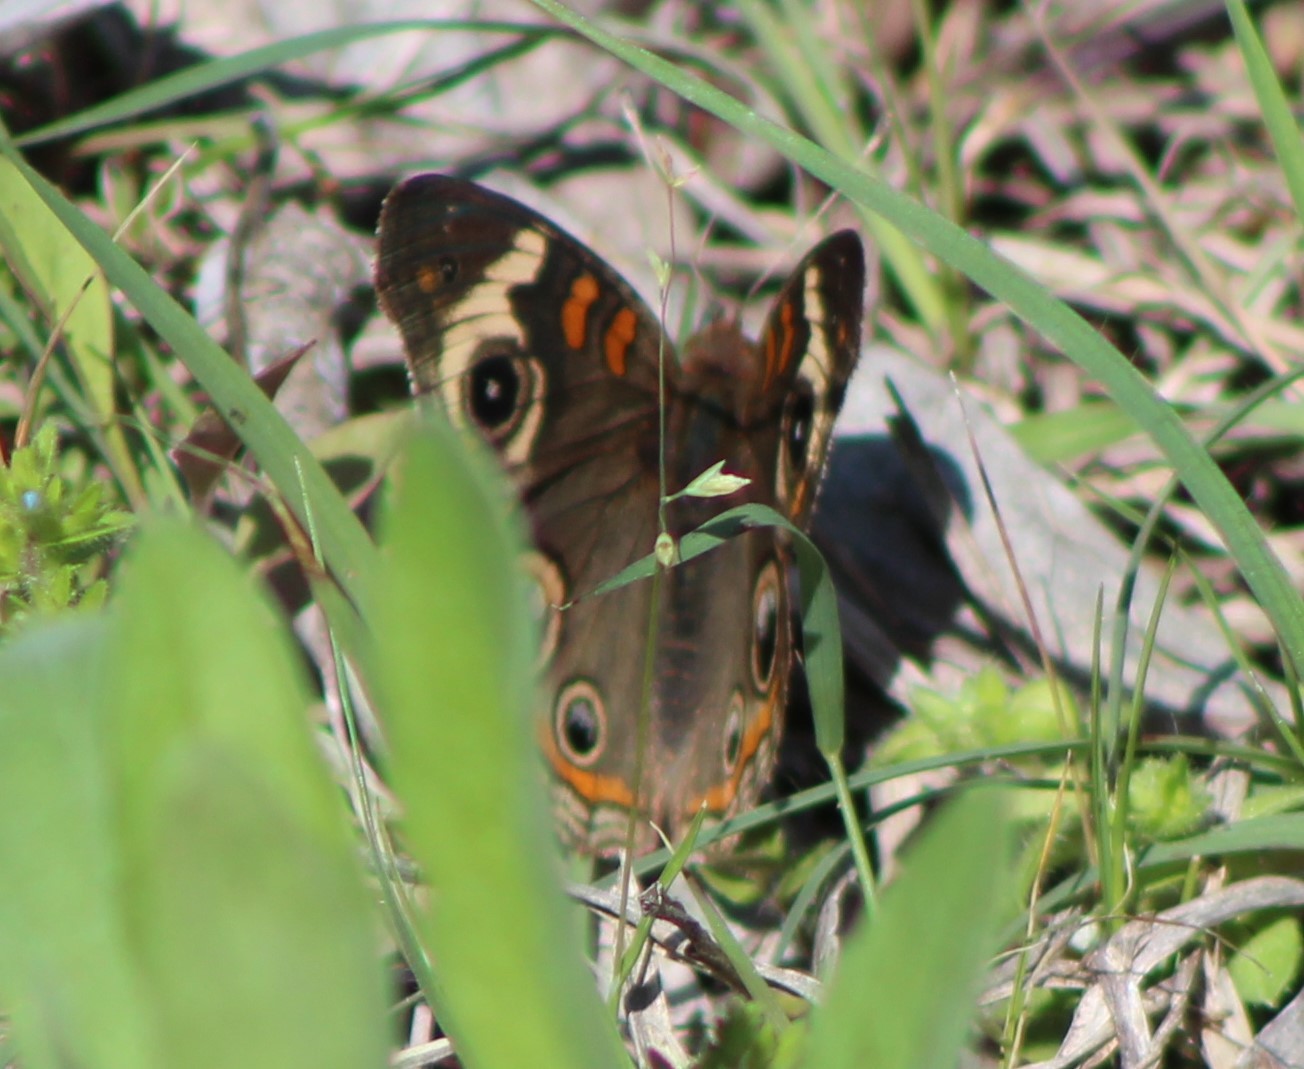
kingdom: Animalia
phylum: Arthropoda
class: Insecta
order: Lepidoptera
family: Nymphalidae
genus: Junonia
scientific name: Junonia coenia
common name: Common buckeye
